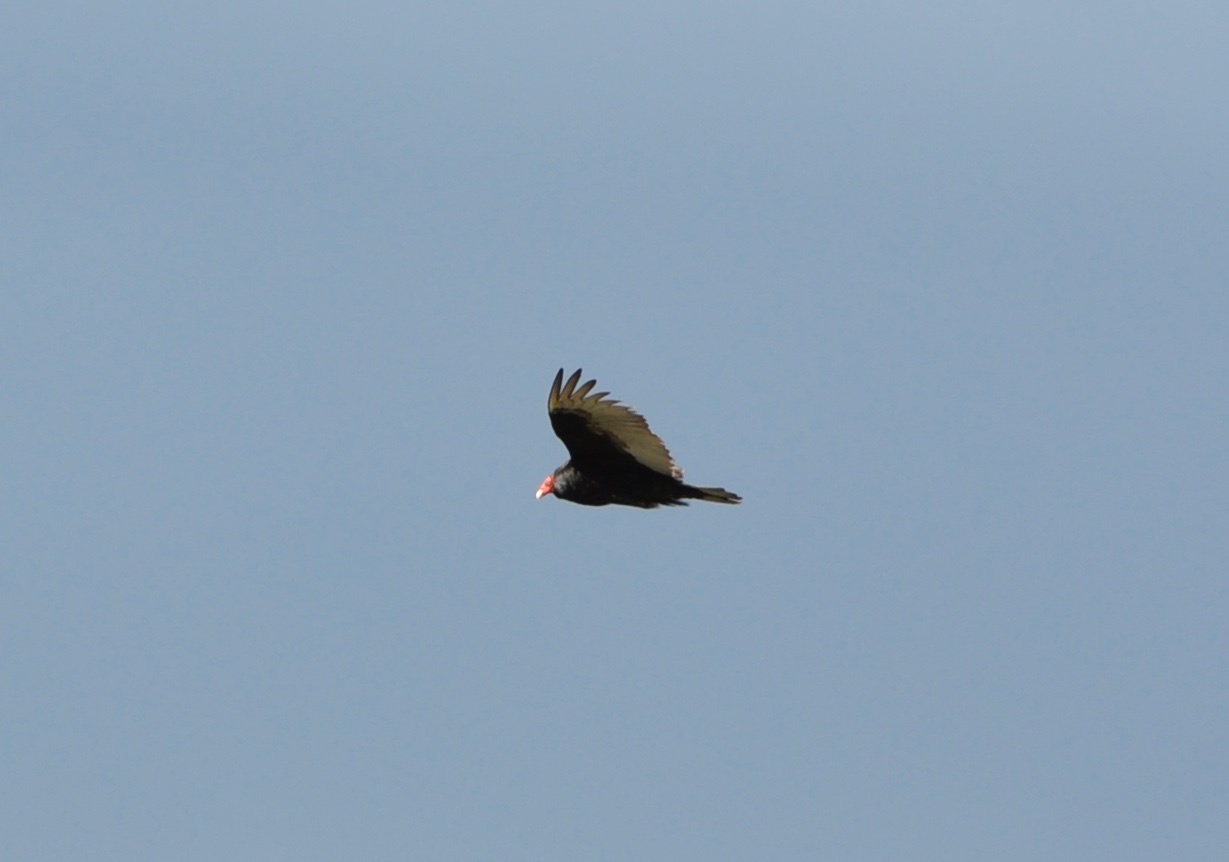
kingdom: Animalia
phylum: Chordata
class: Aves
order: Accipitriformes
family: Cathartidae
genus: Cathartes
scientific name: Cathartes aura
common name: Turkey vulture
